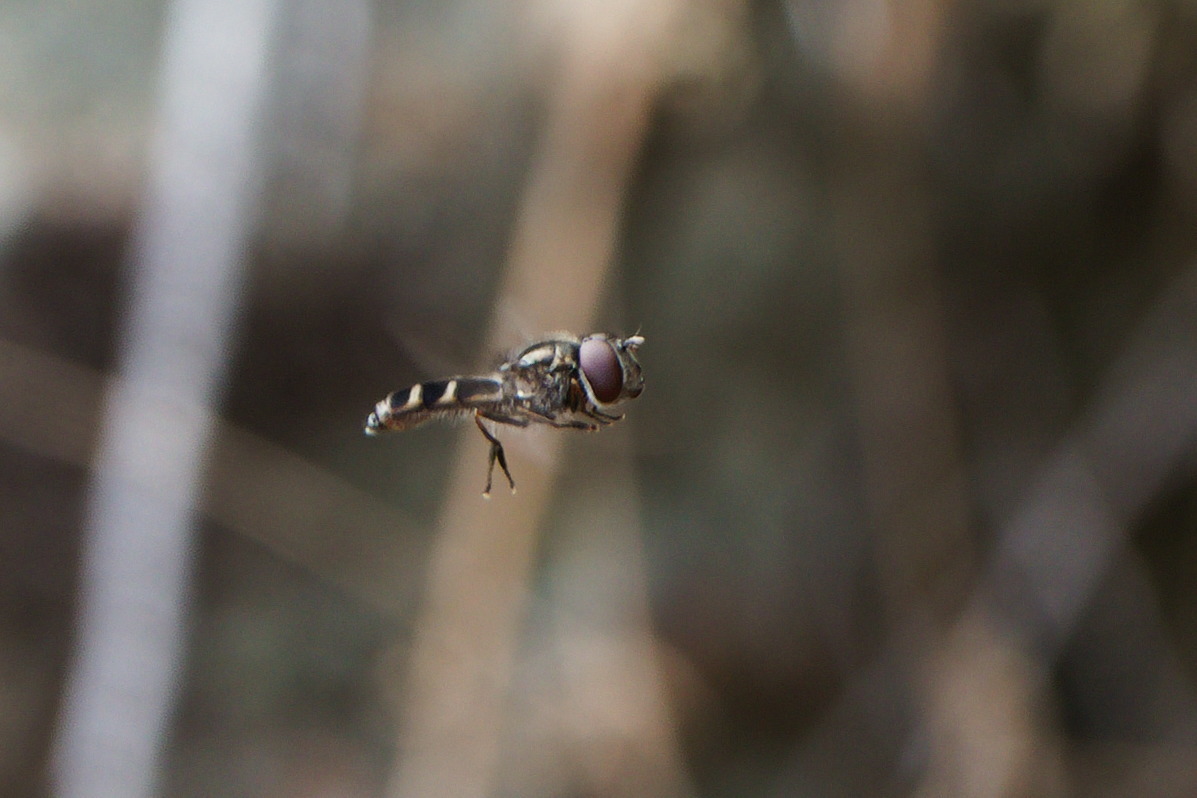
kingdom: Animalia
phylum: Arthropoda
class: Insecta
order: Diptera
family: Syrphidae
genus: Platycheirus
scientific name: Platycheirus fenestrata
